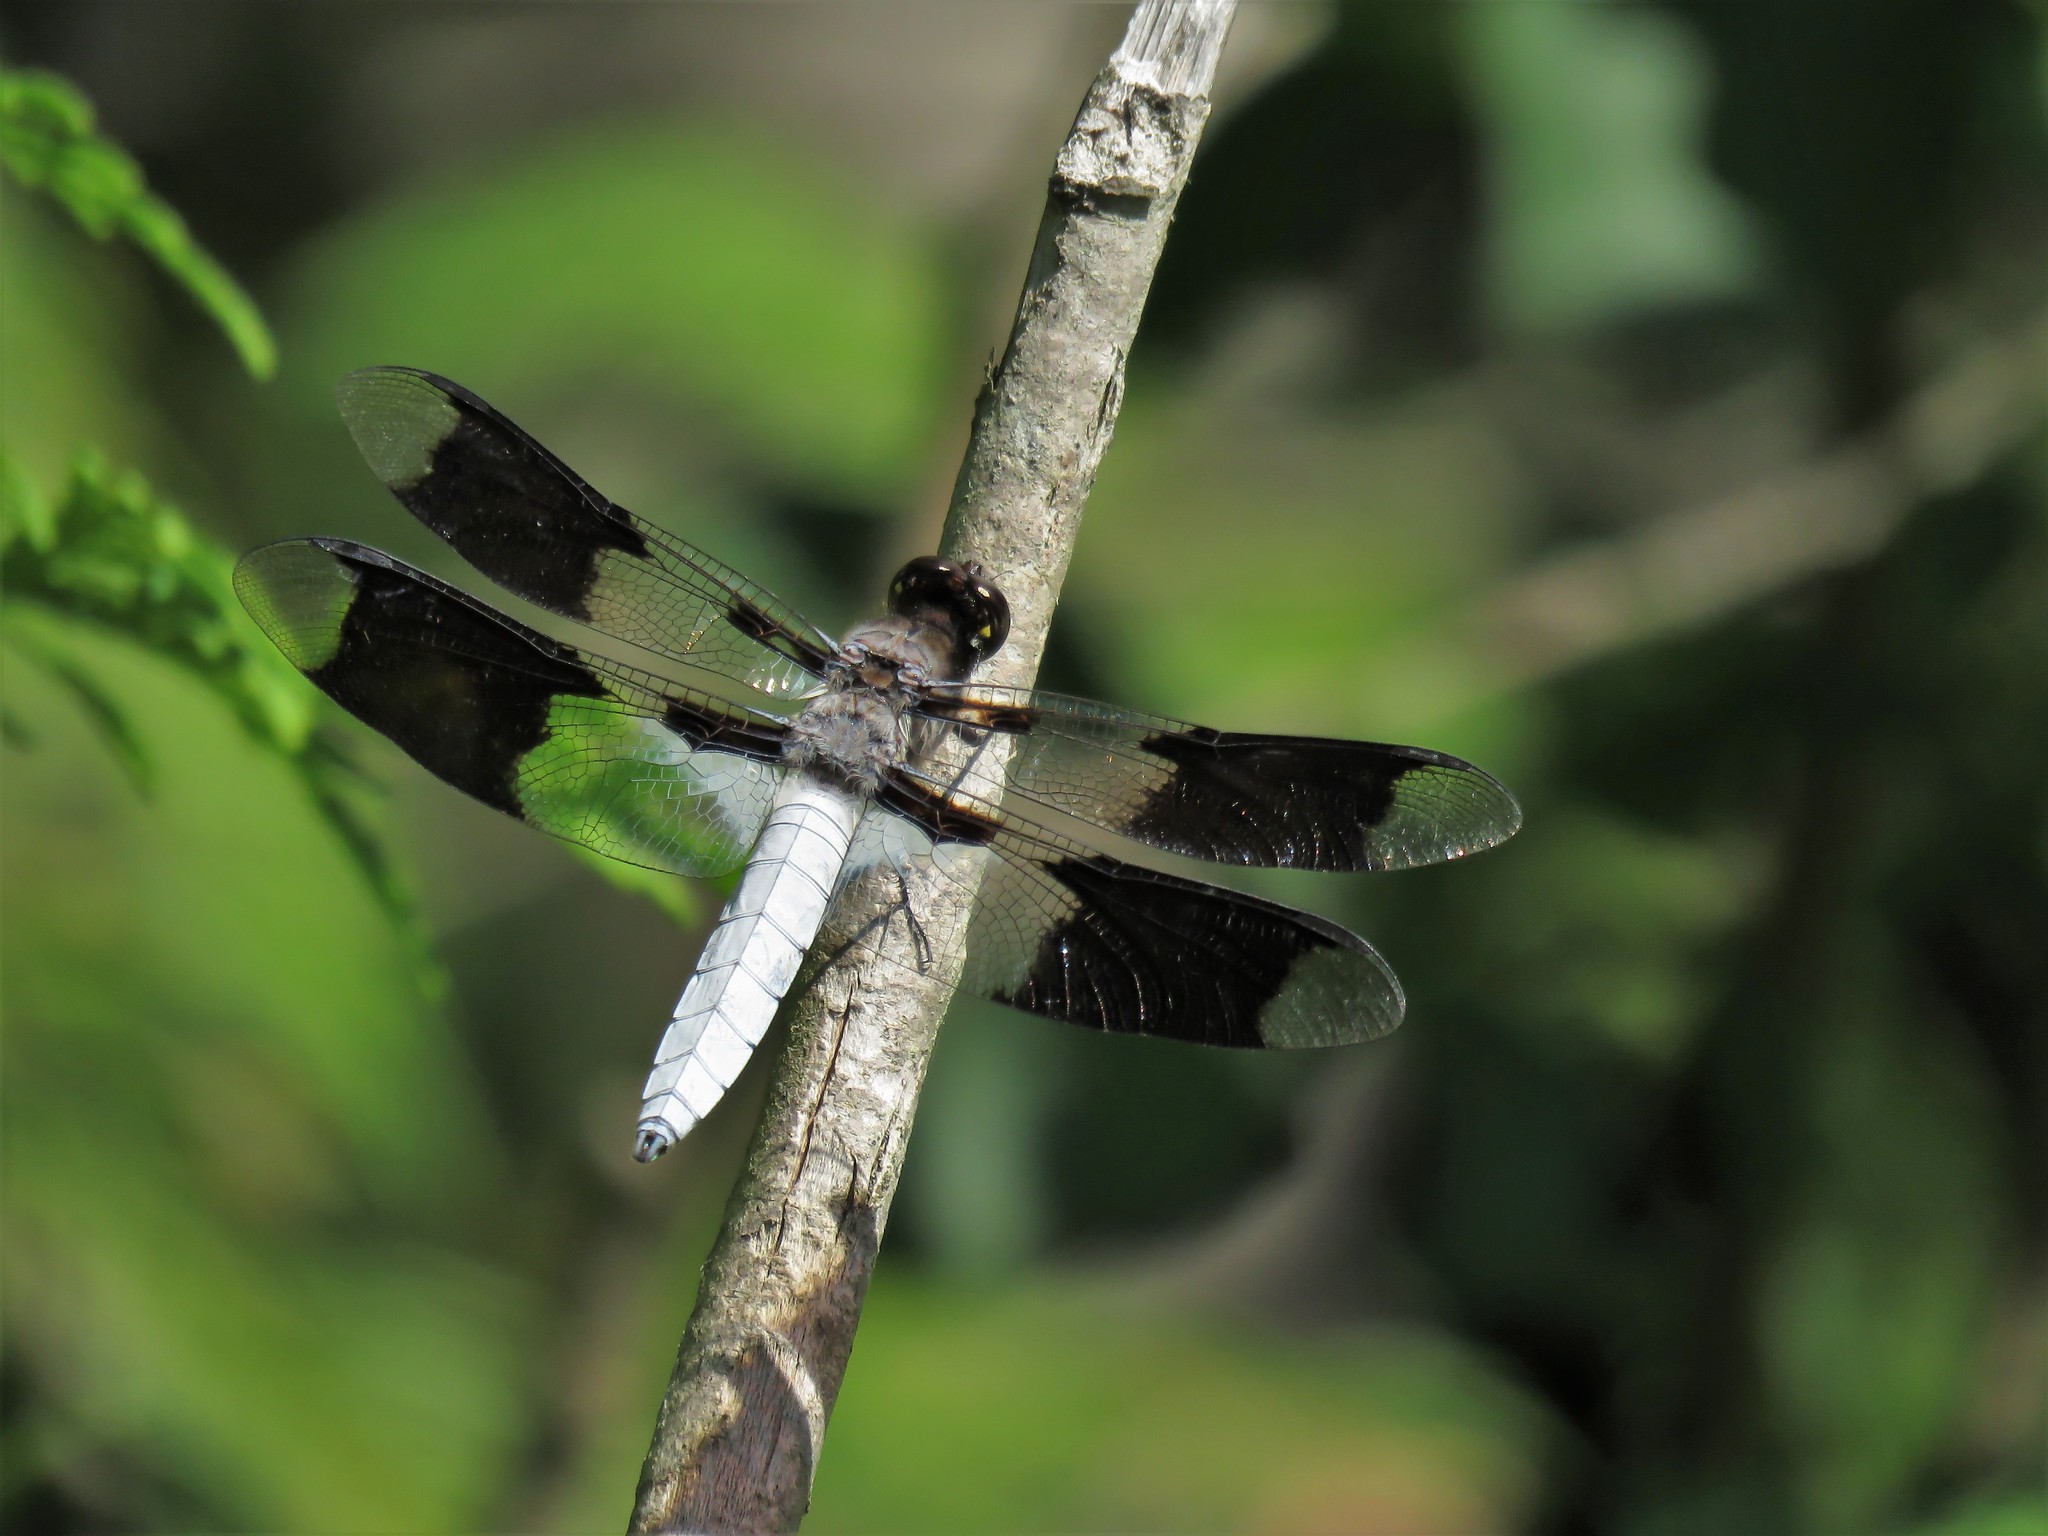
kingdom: Animalia
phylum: Arthropoda
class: Insecta
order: Odonata
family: Libellulidae
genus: Plathemis
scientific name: Plathemis lydia
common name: Common whitetail
